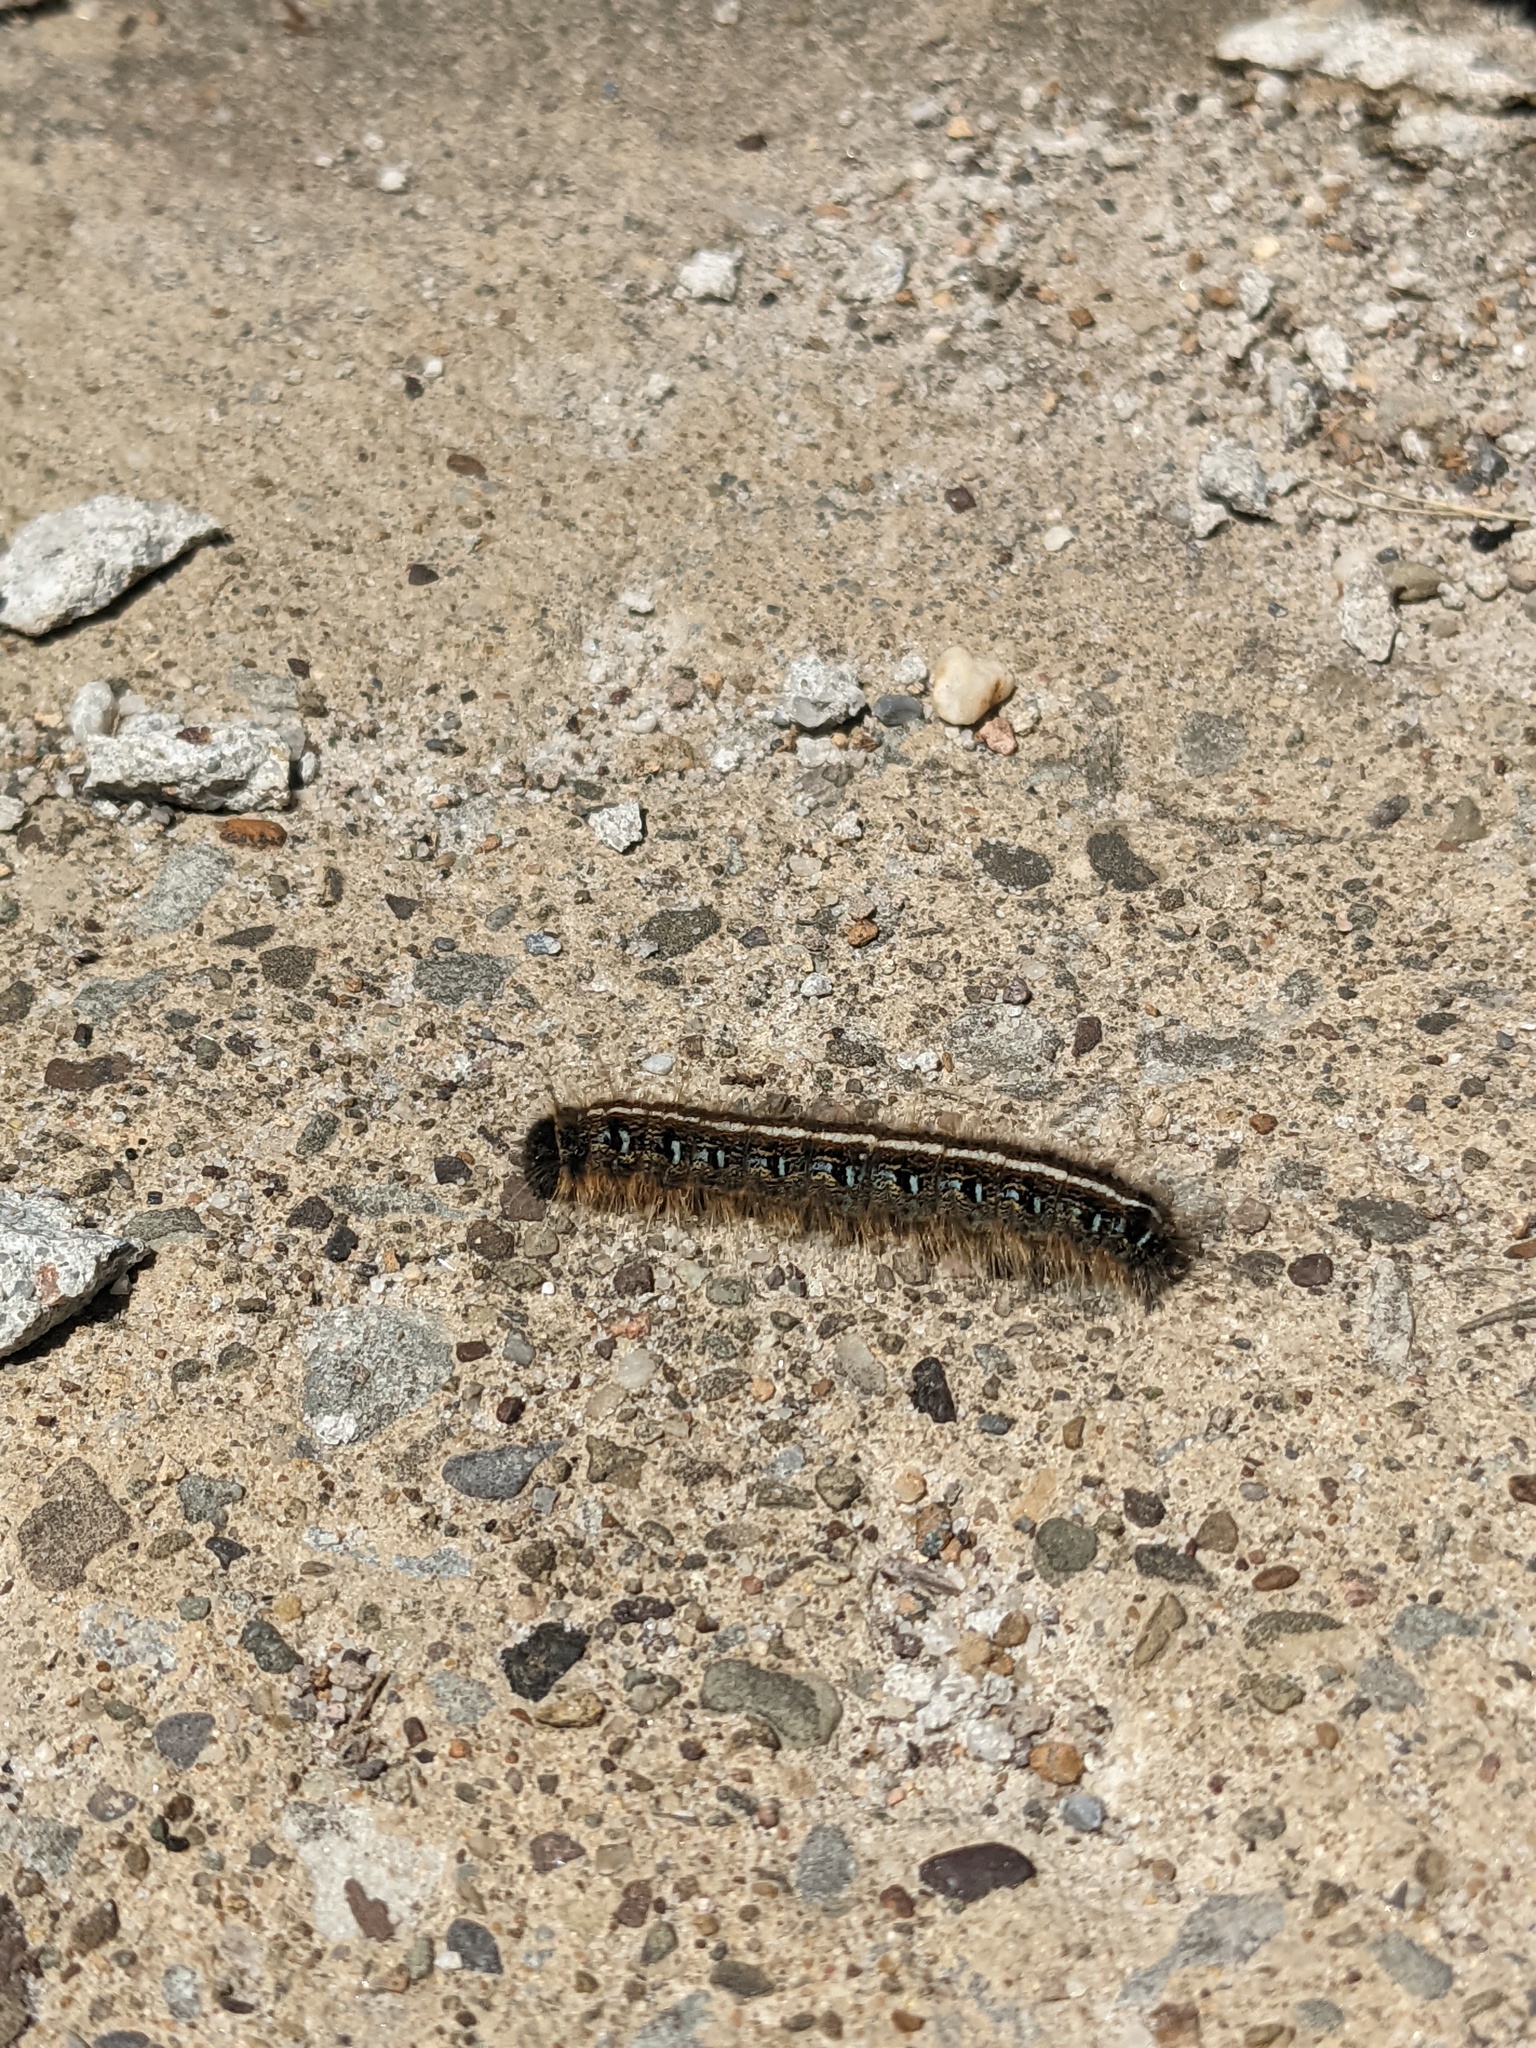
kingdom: Animalia
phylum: Arthropoda
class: Insecta
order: Lepidoptera
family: Lasiocampidae
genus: Malacosoma
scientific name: Malacosoma americana
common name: Eastern tent caterpillar moth
